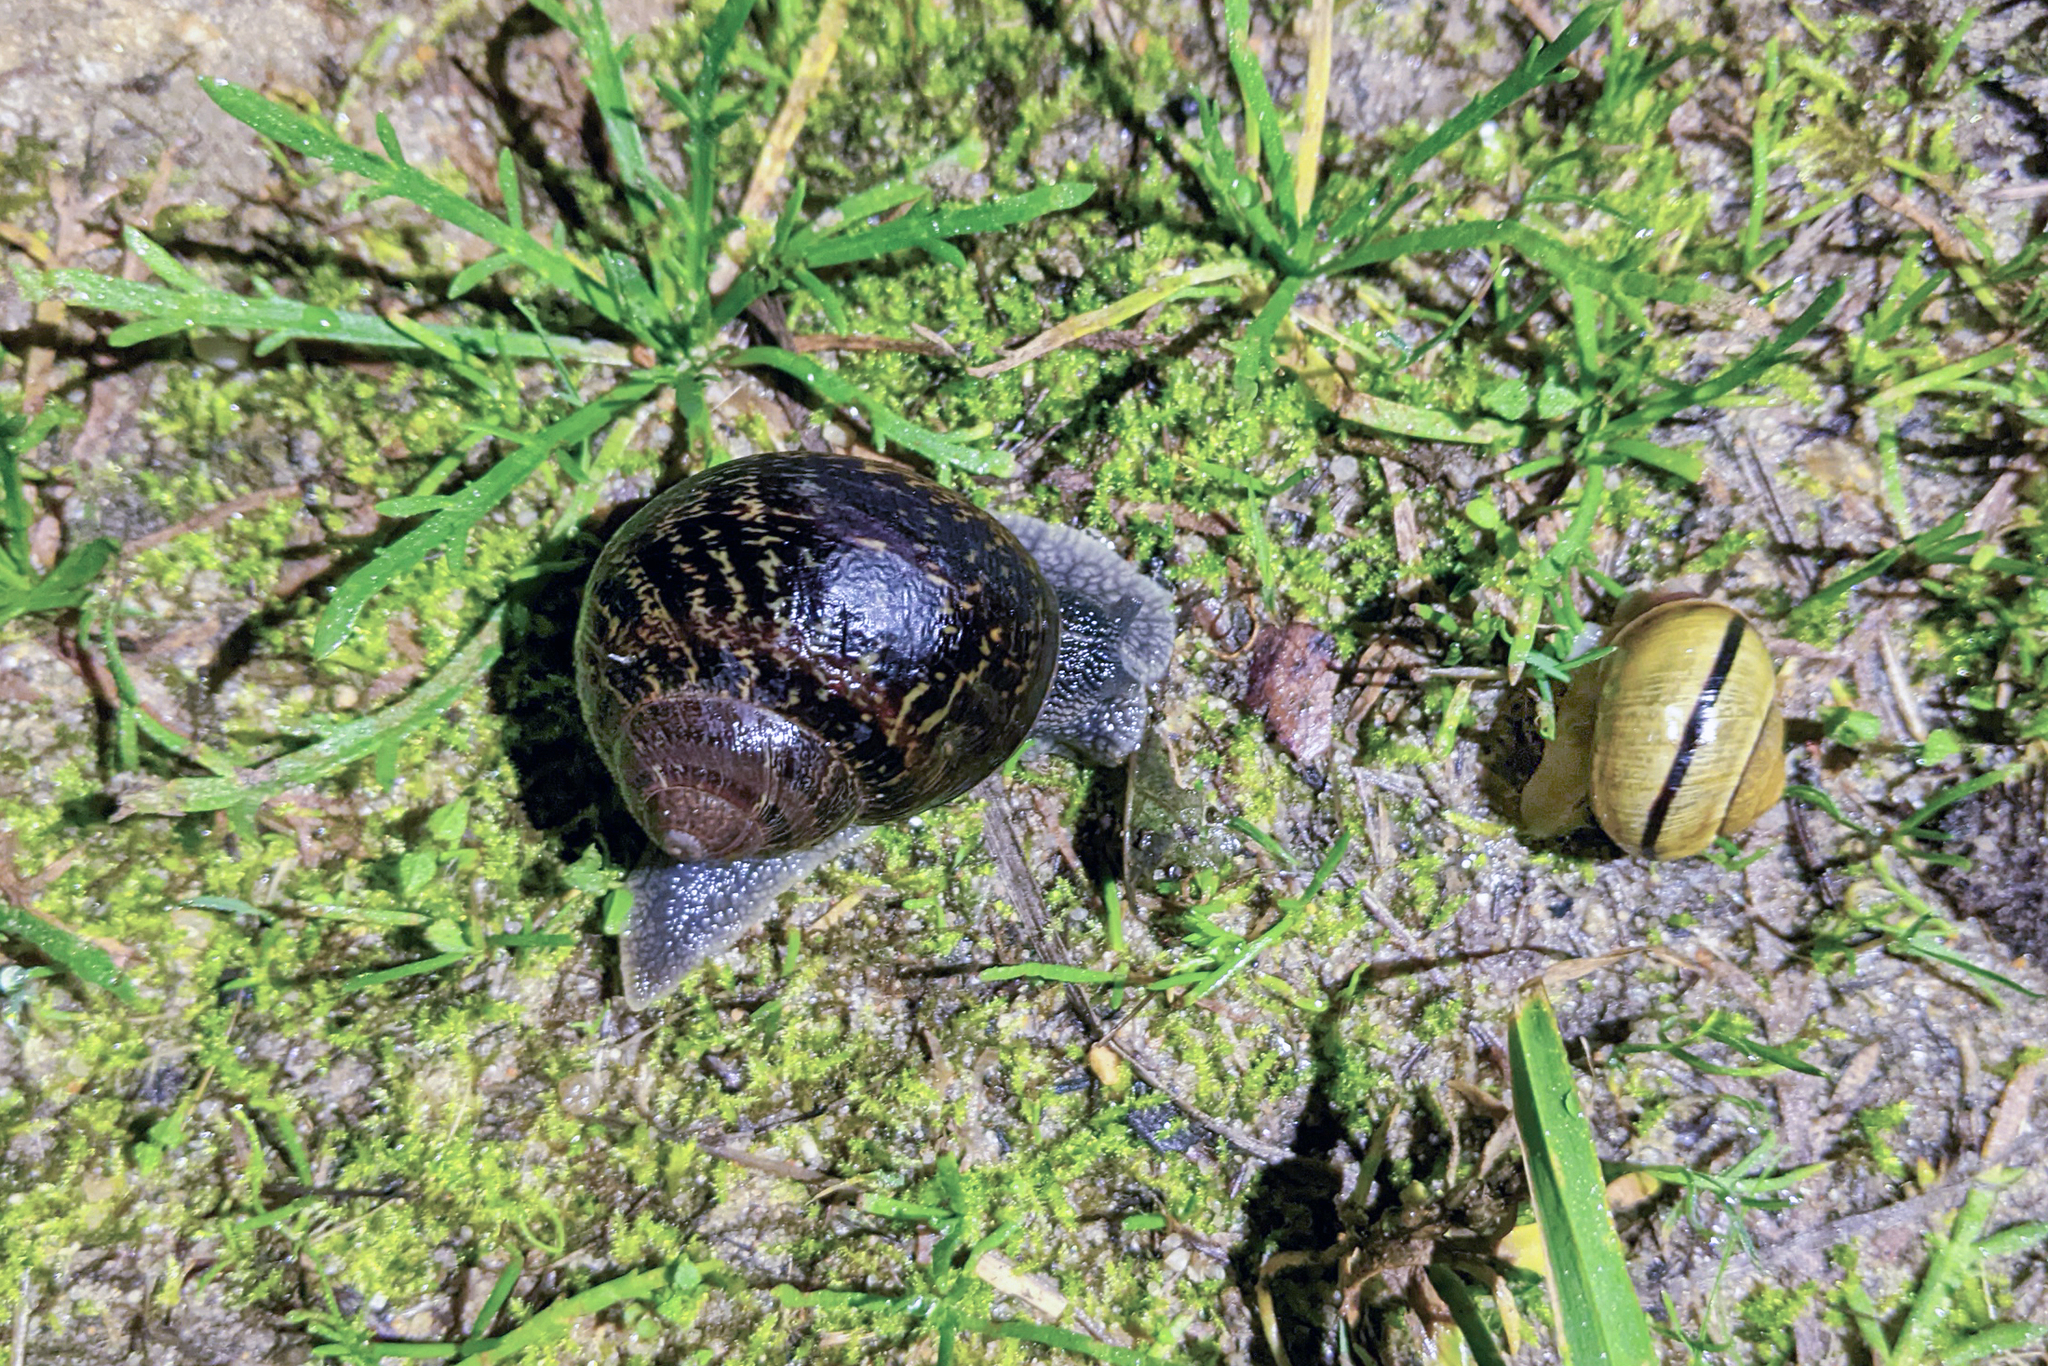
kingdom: Animalia
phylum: Mollusca
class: Gastropoda
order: Stylommatophora
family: Helicidae
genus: Cornu
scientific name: Cornu aspersum
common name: Brown garden snail
